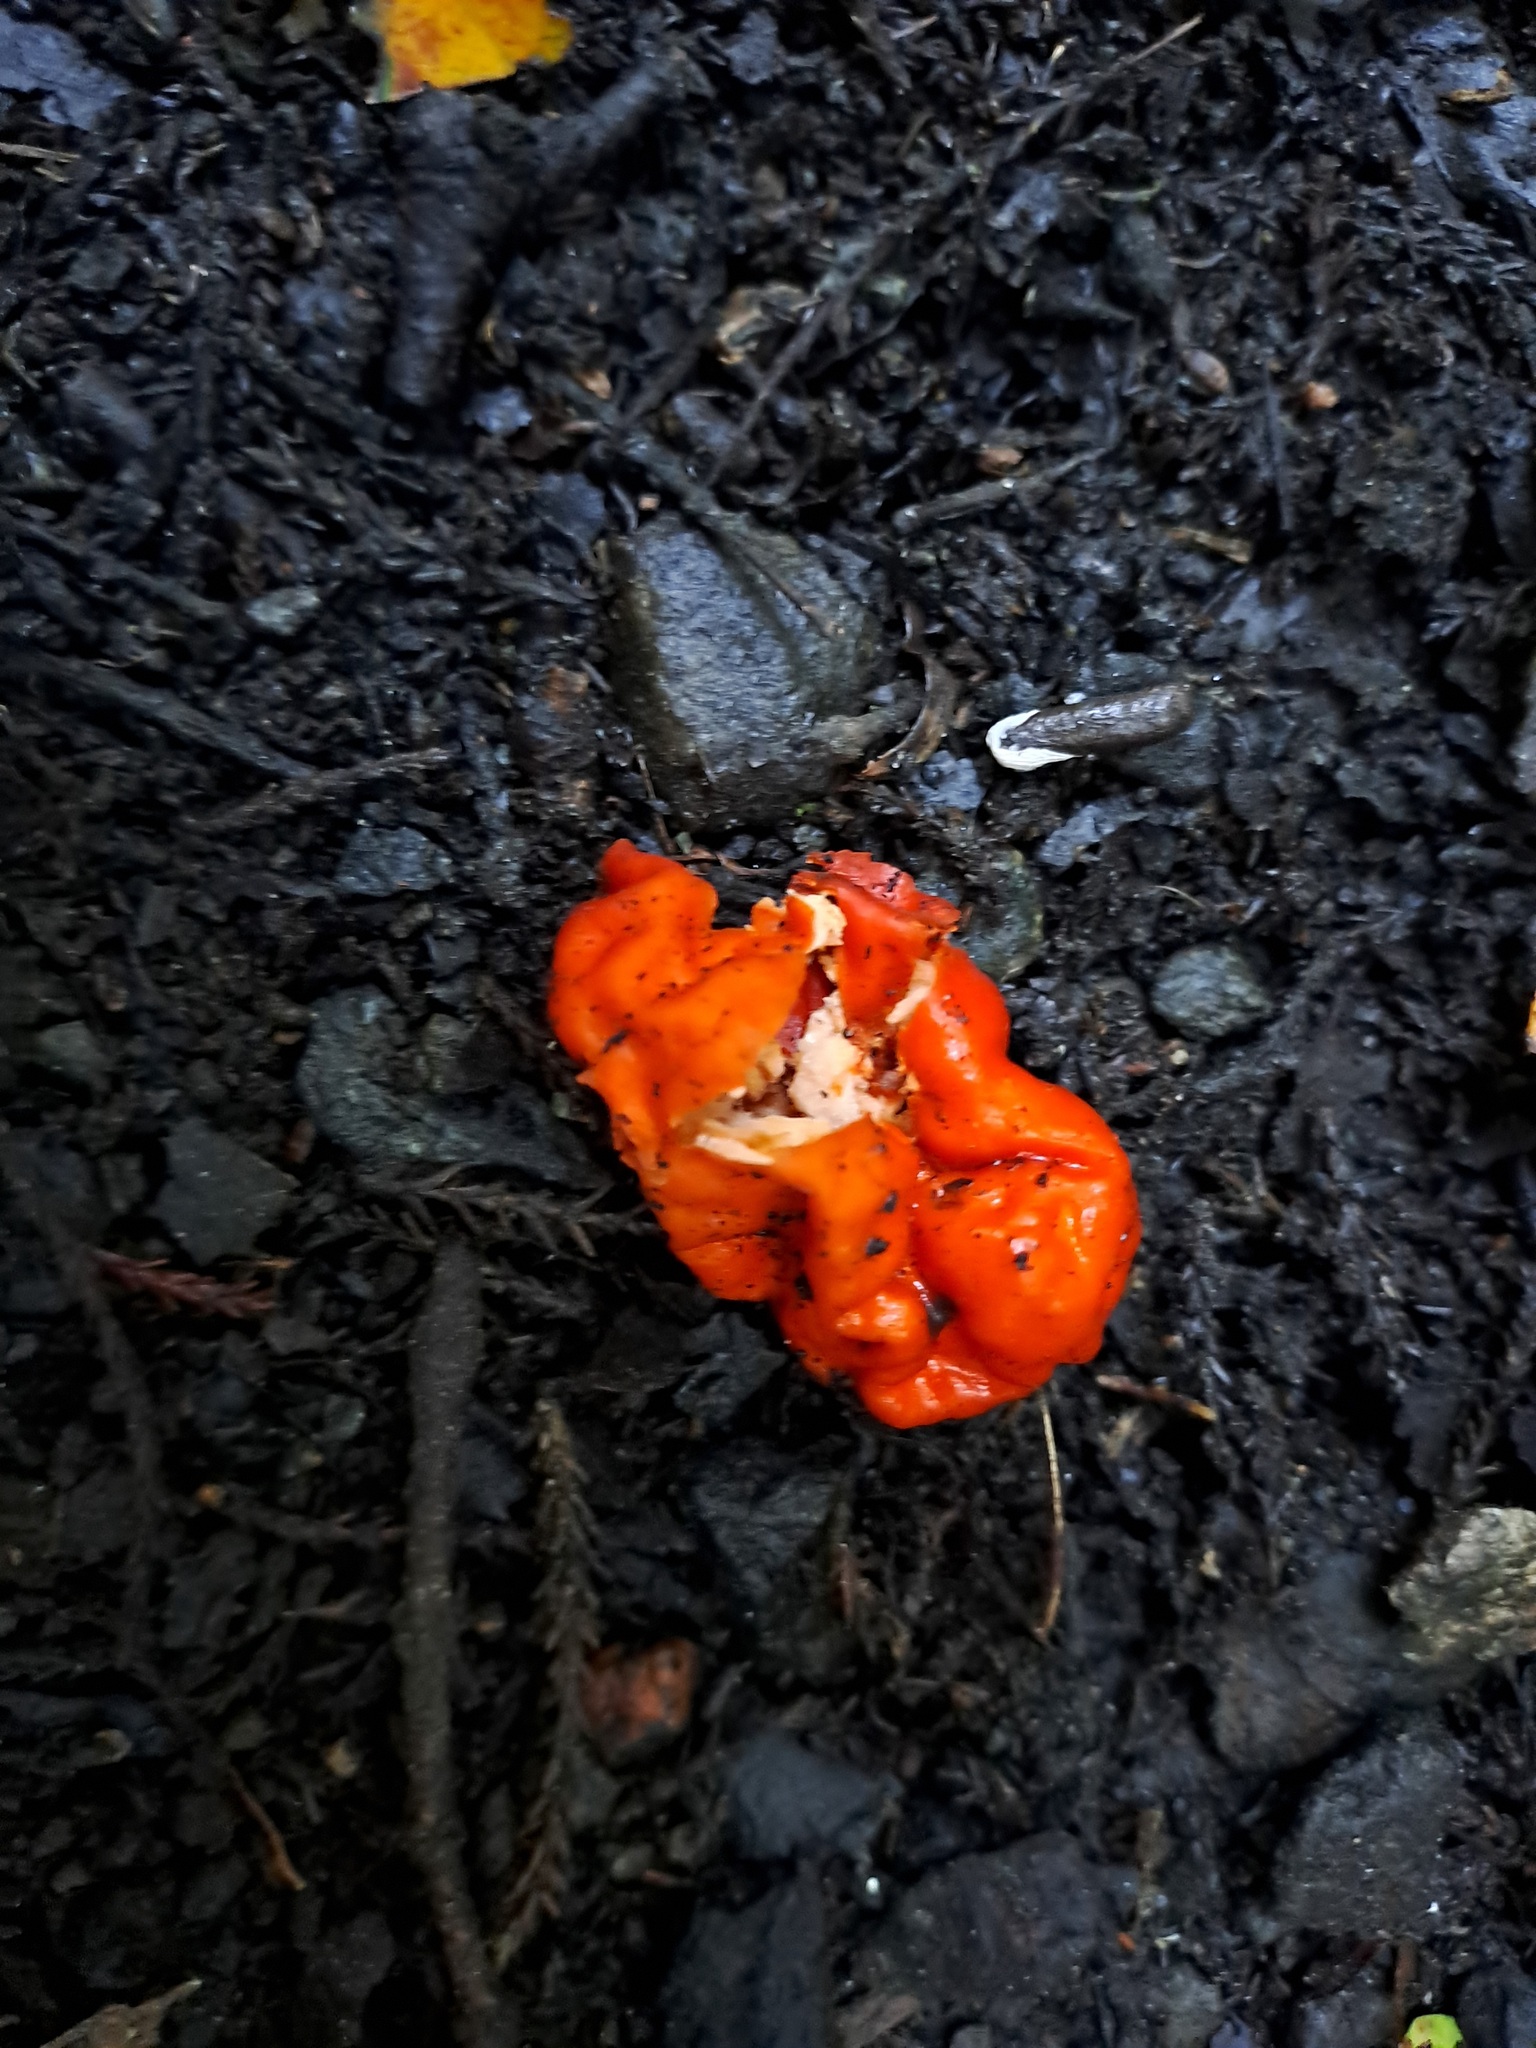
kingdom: Fungi
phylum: Ascomycota
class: Pezizomycetes
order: Pezizales
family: Pyronemataceae
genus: Paurocotylis
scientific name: Paurocotylis pila
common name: Scarlet berry truffle
